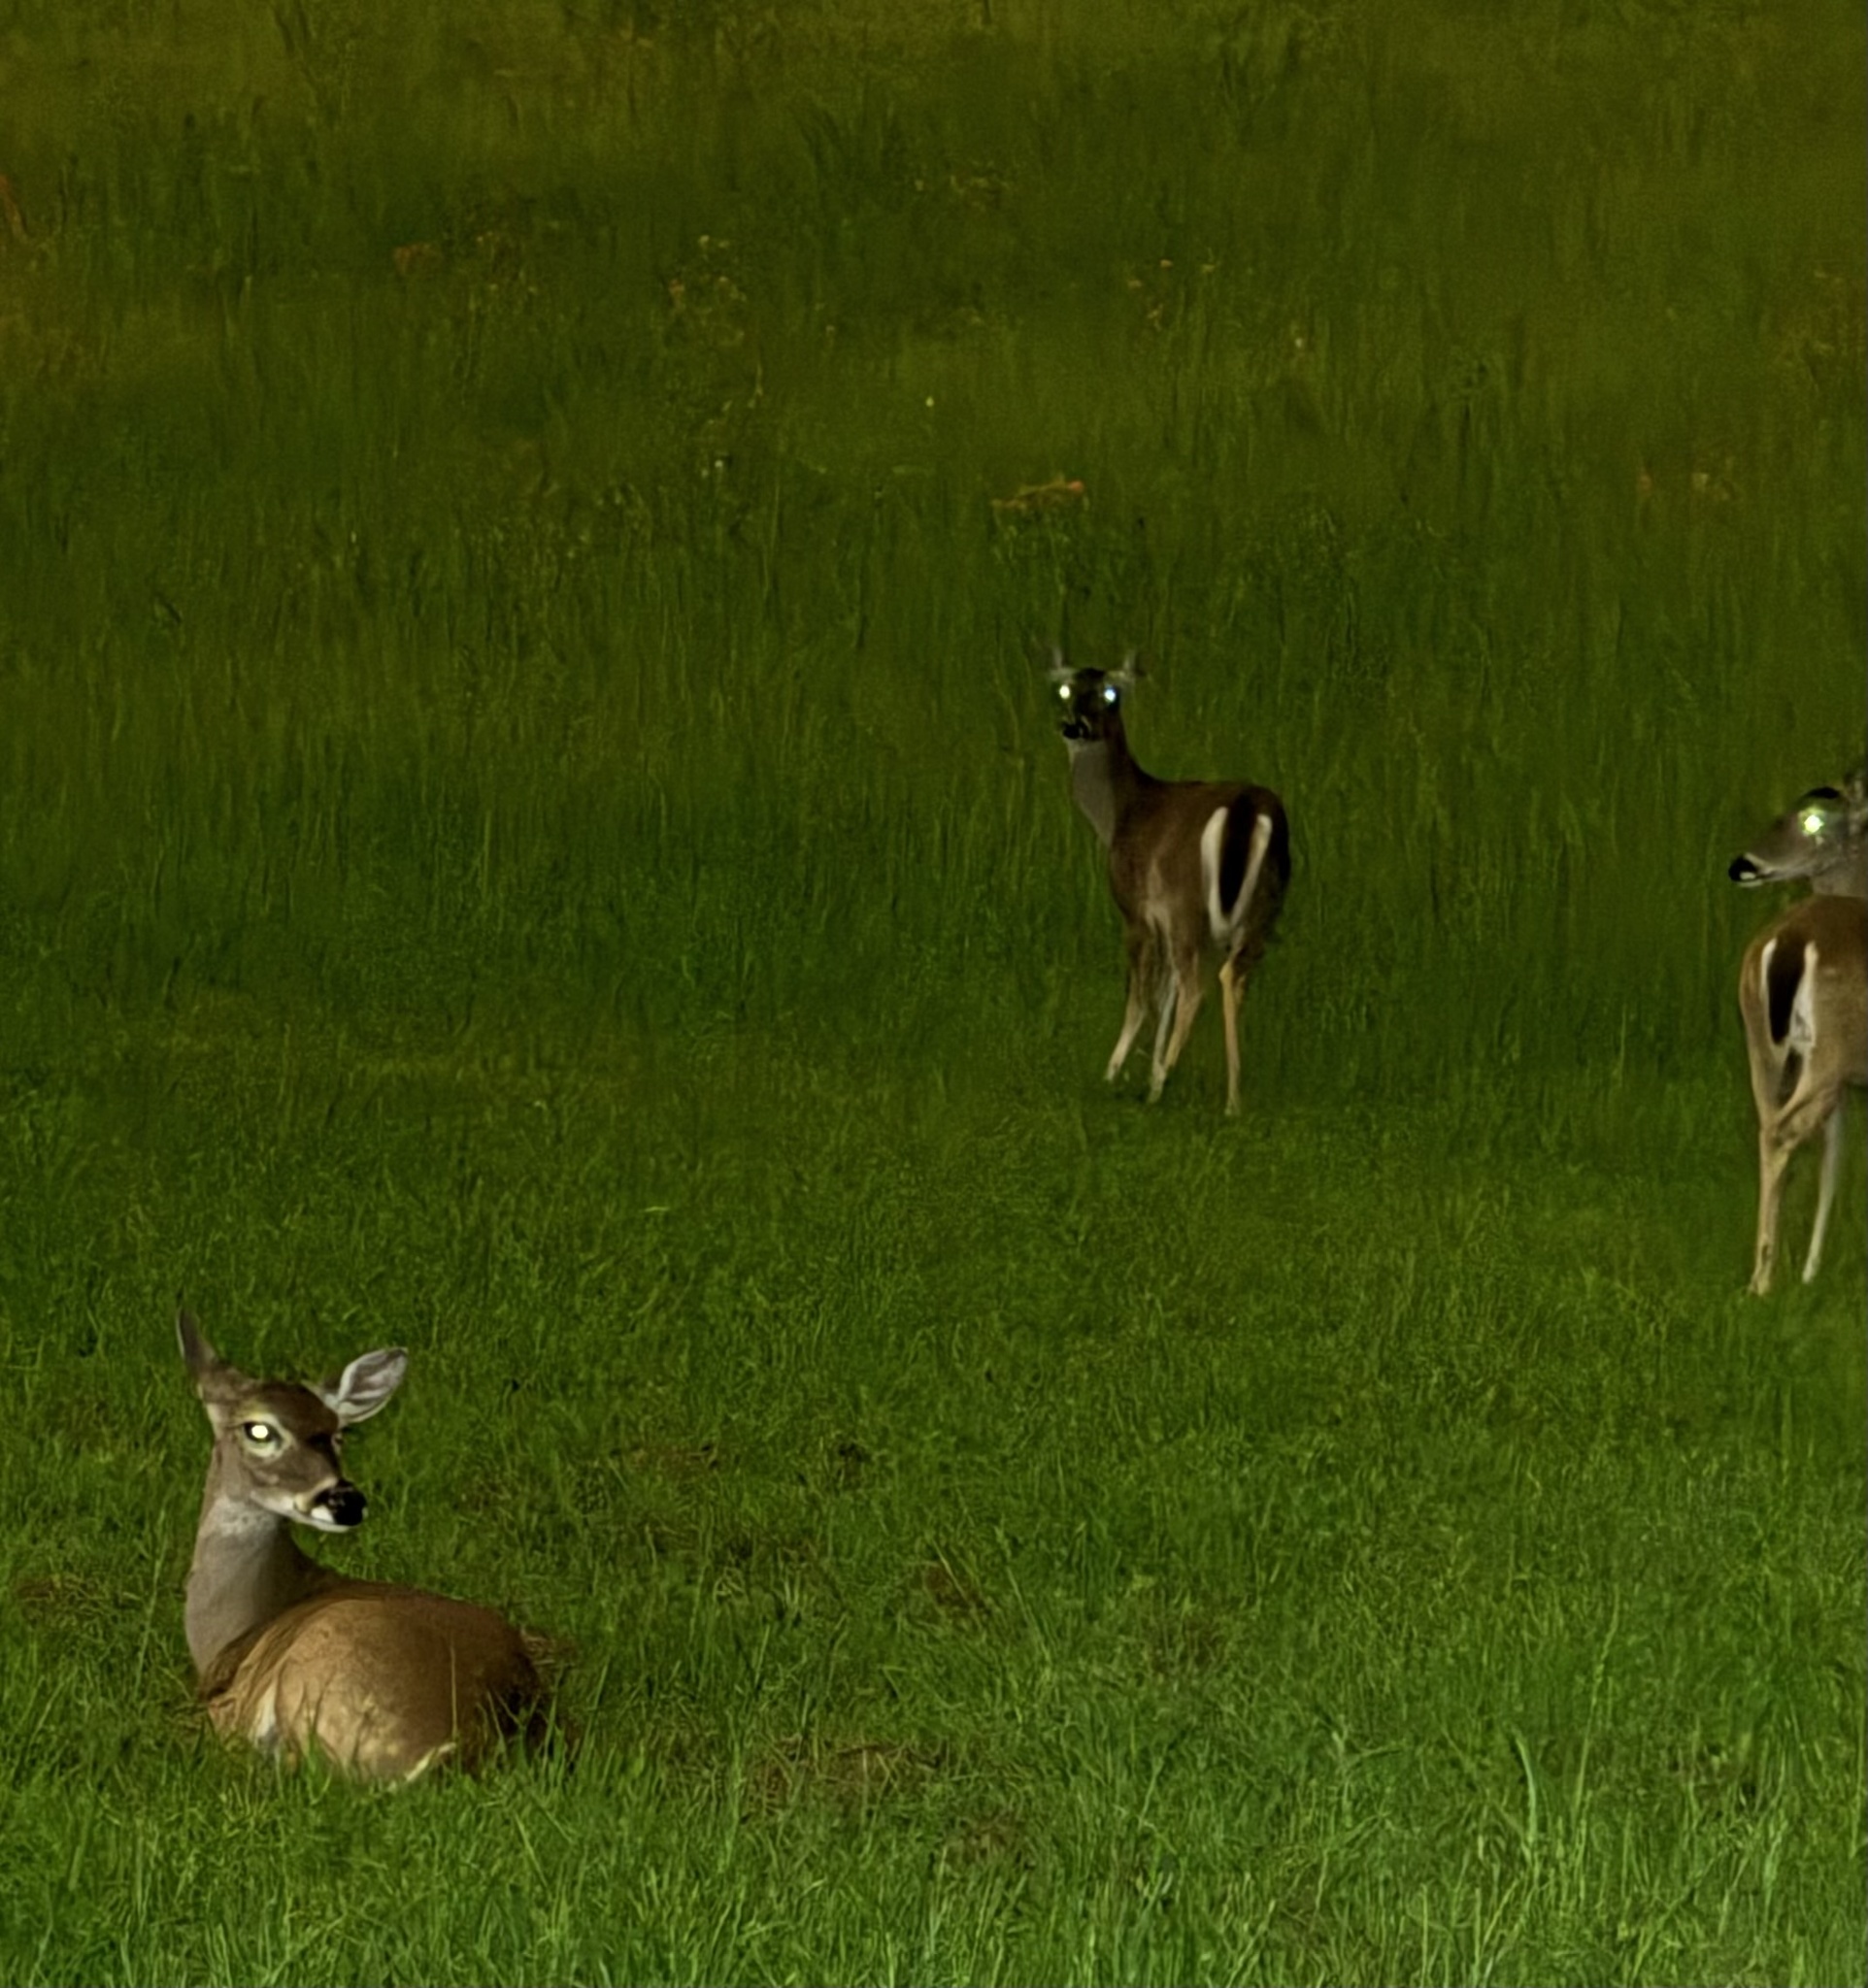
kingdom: Animalia
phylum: Chordata
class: Mammalia
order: Artiodactyla
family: Cervidae
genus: Odocoileus
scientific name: Odocoileus virginianus
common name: White-tailed deer
